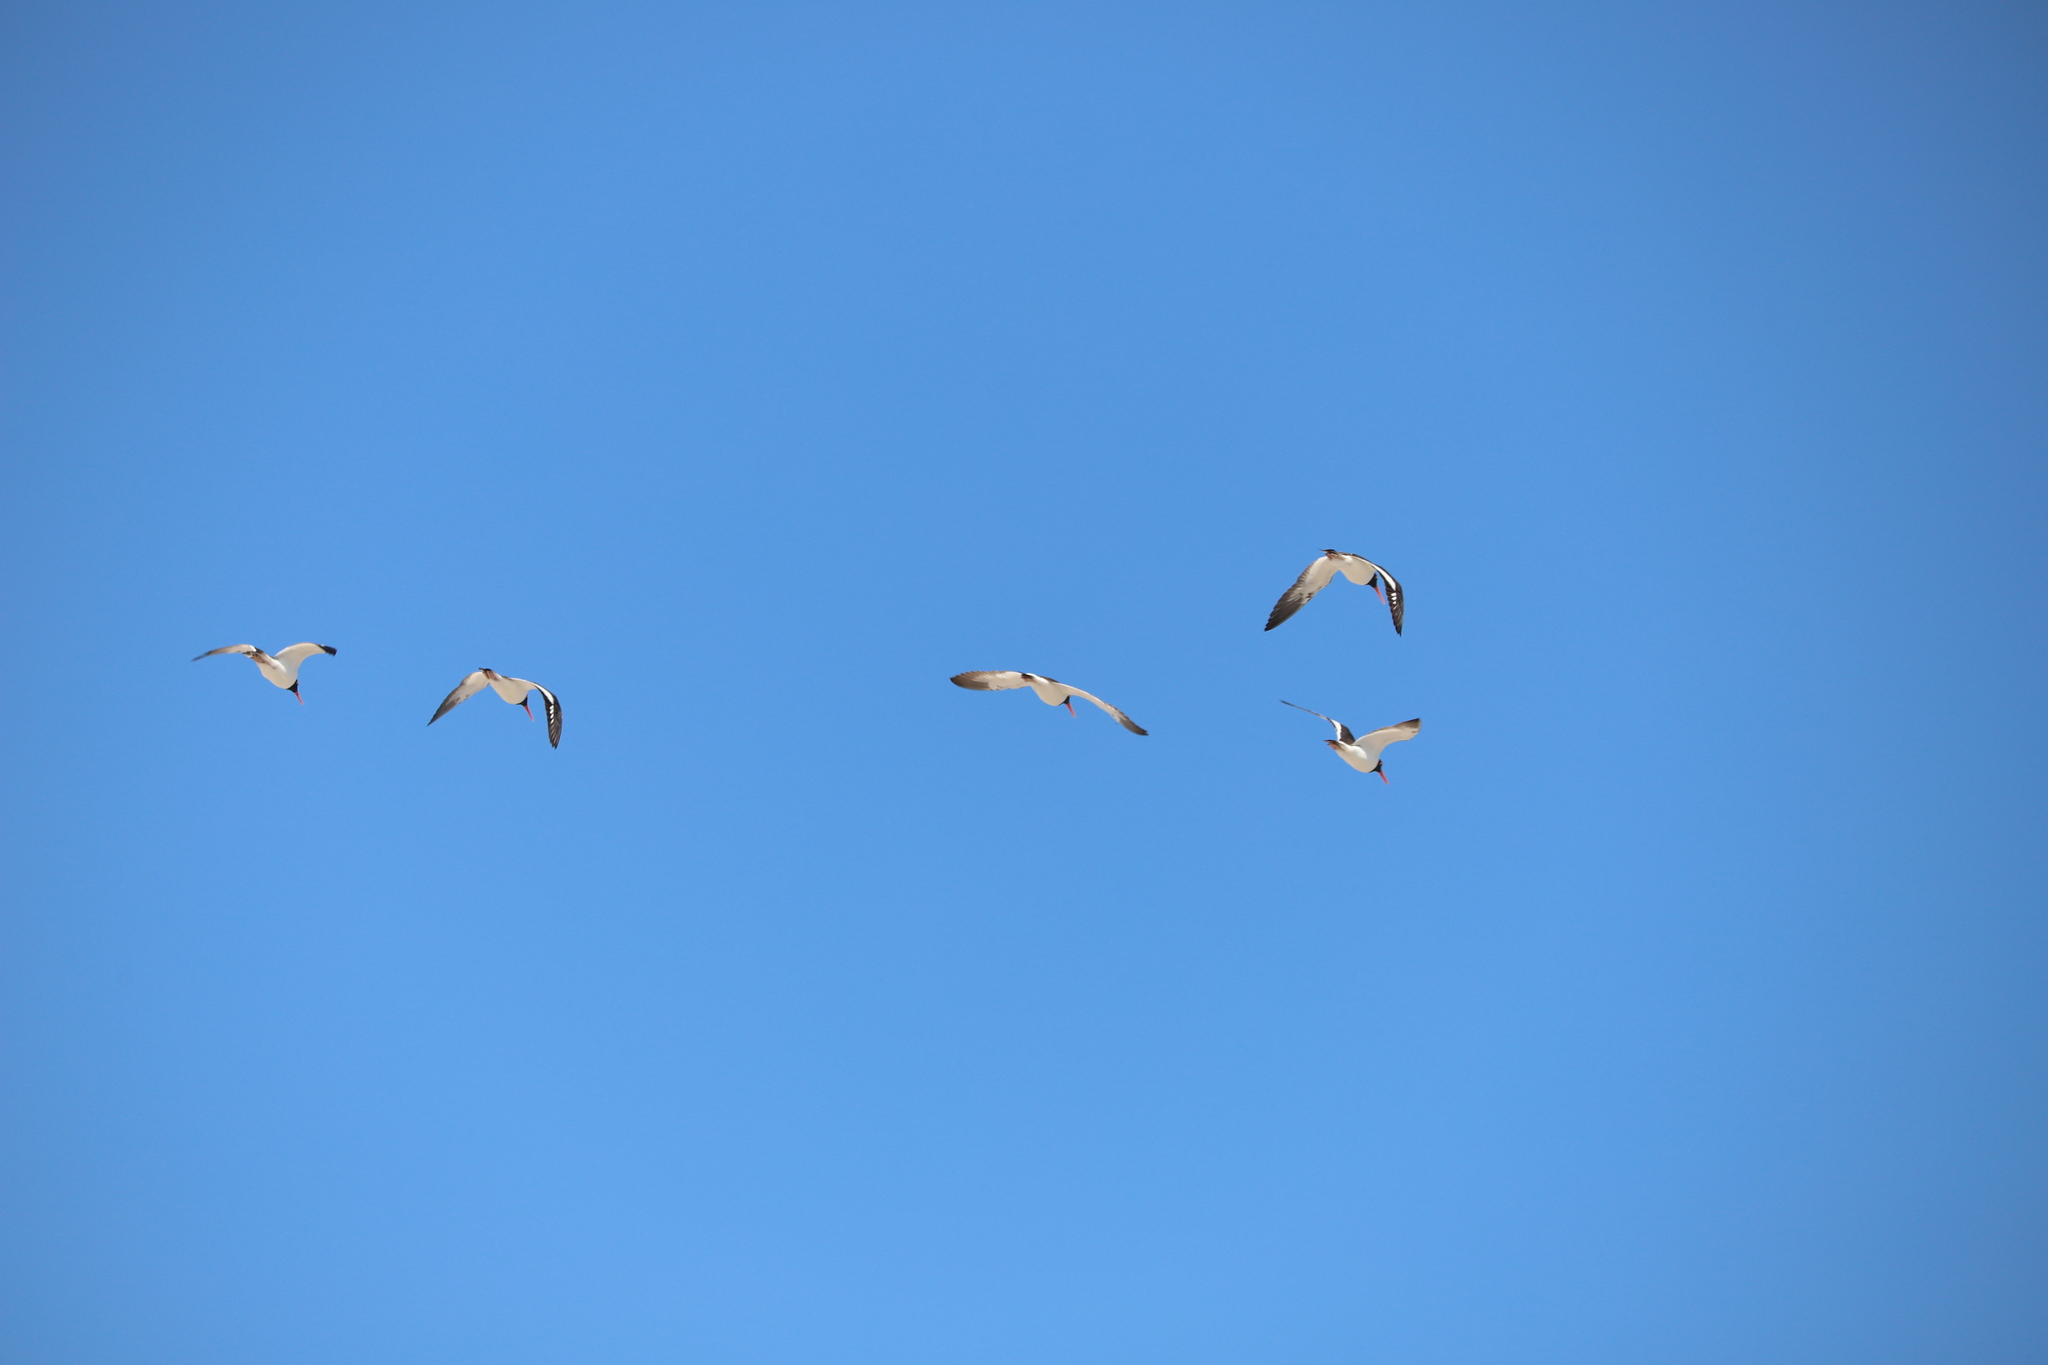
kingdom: Animalia
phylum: Chordata
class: Aves
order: Charadriiformes
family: Haematopodidae
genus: Haematopus
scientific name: Haematopus palliatus
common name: American oystercatcher
